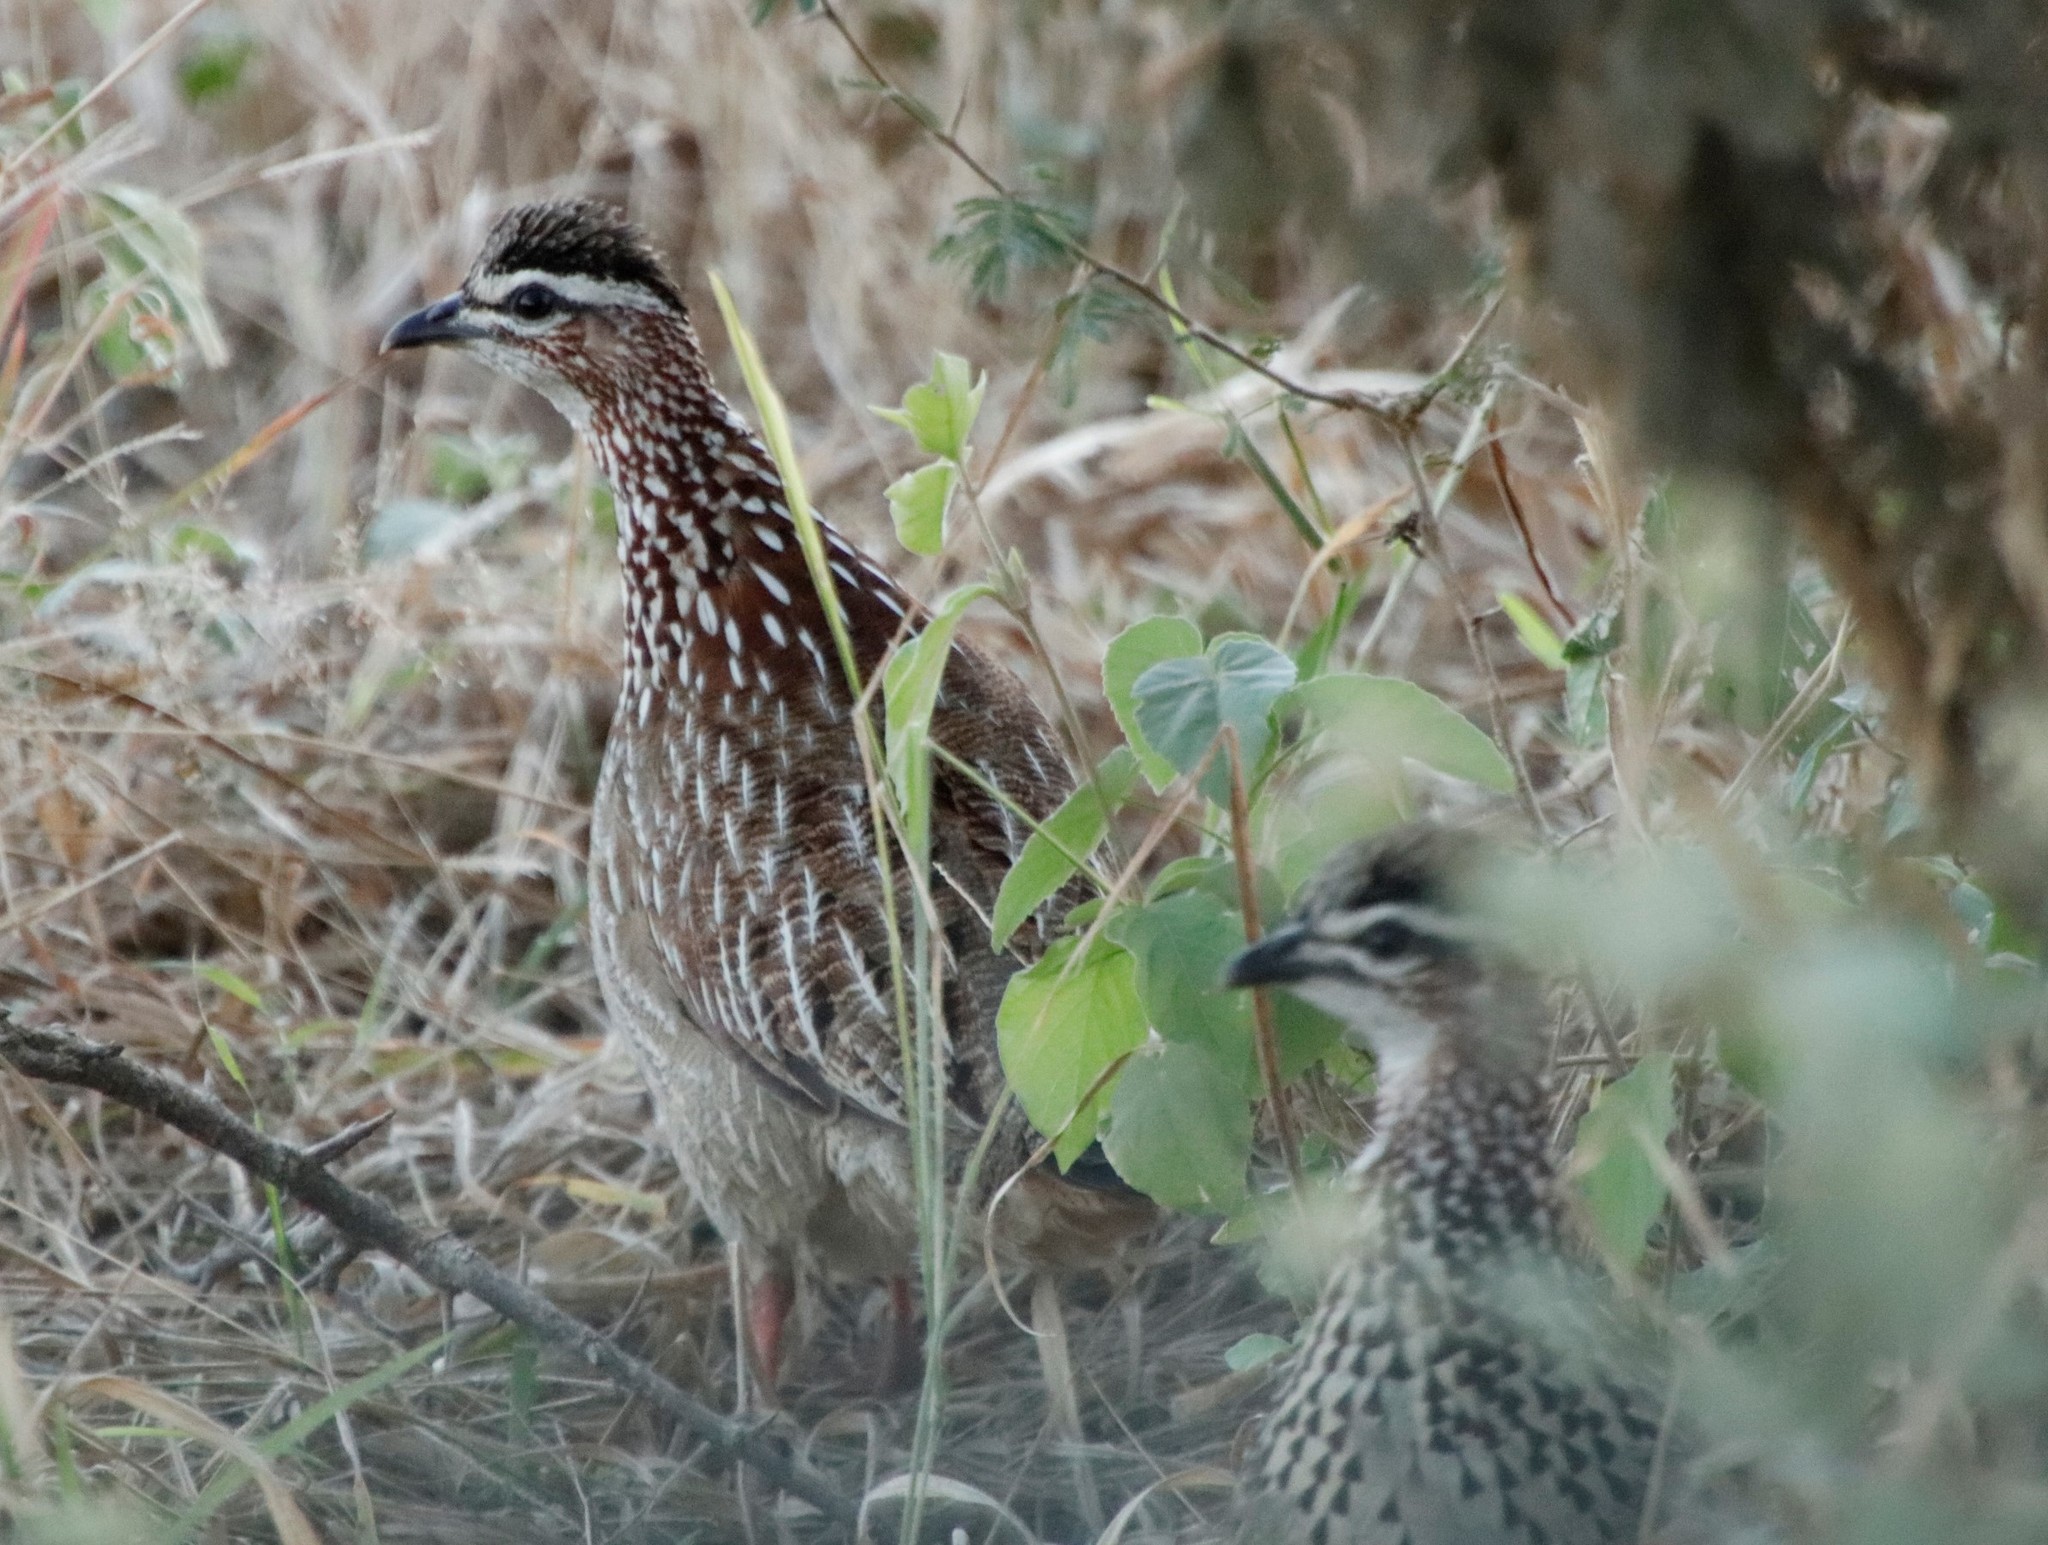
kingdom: Animalia
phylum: Chordata
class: Aves
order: Galliformes
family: Phasianidae
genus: Ortygornis
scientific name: Ortygornis sephaena
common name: Crested francolin
